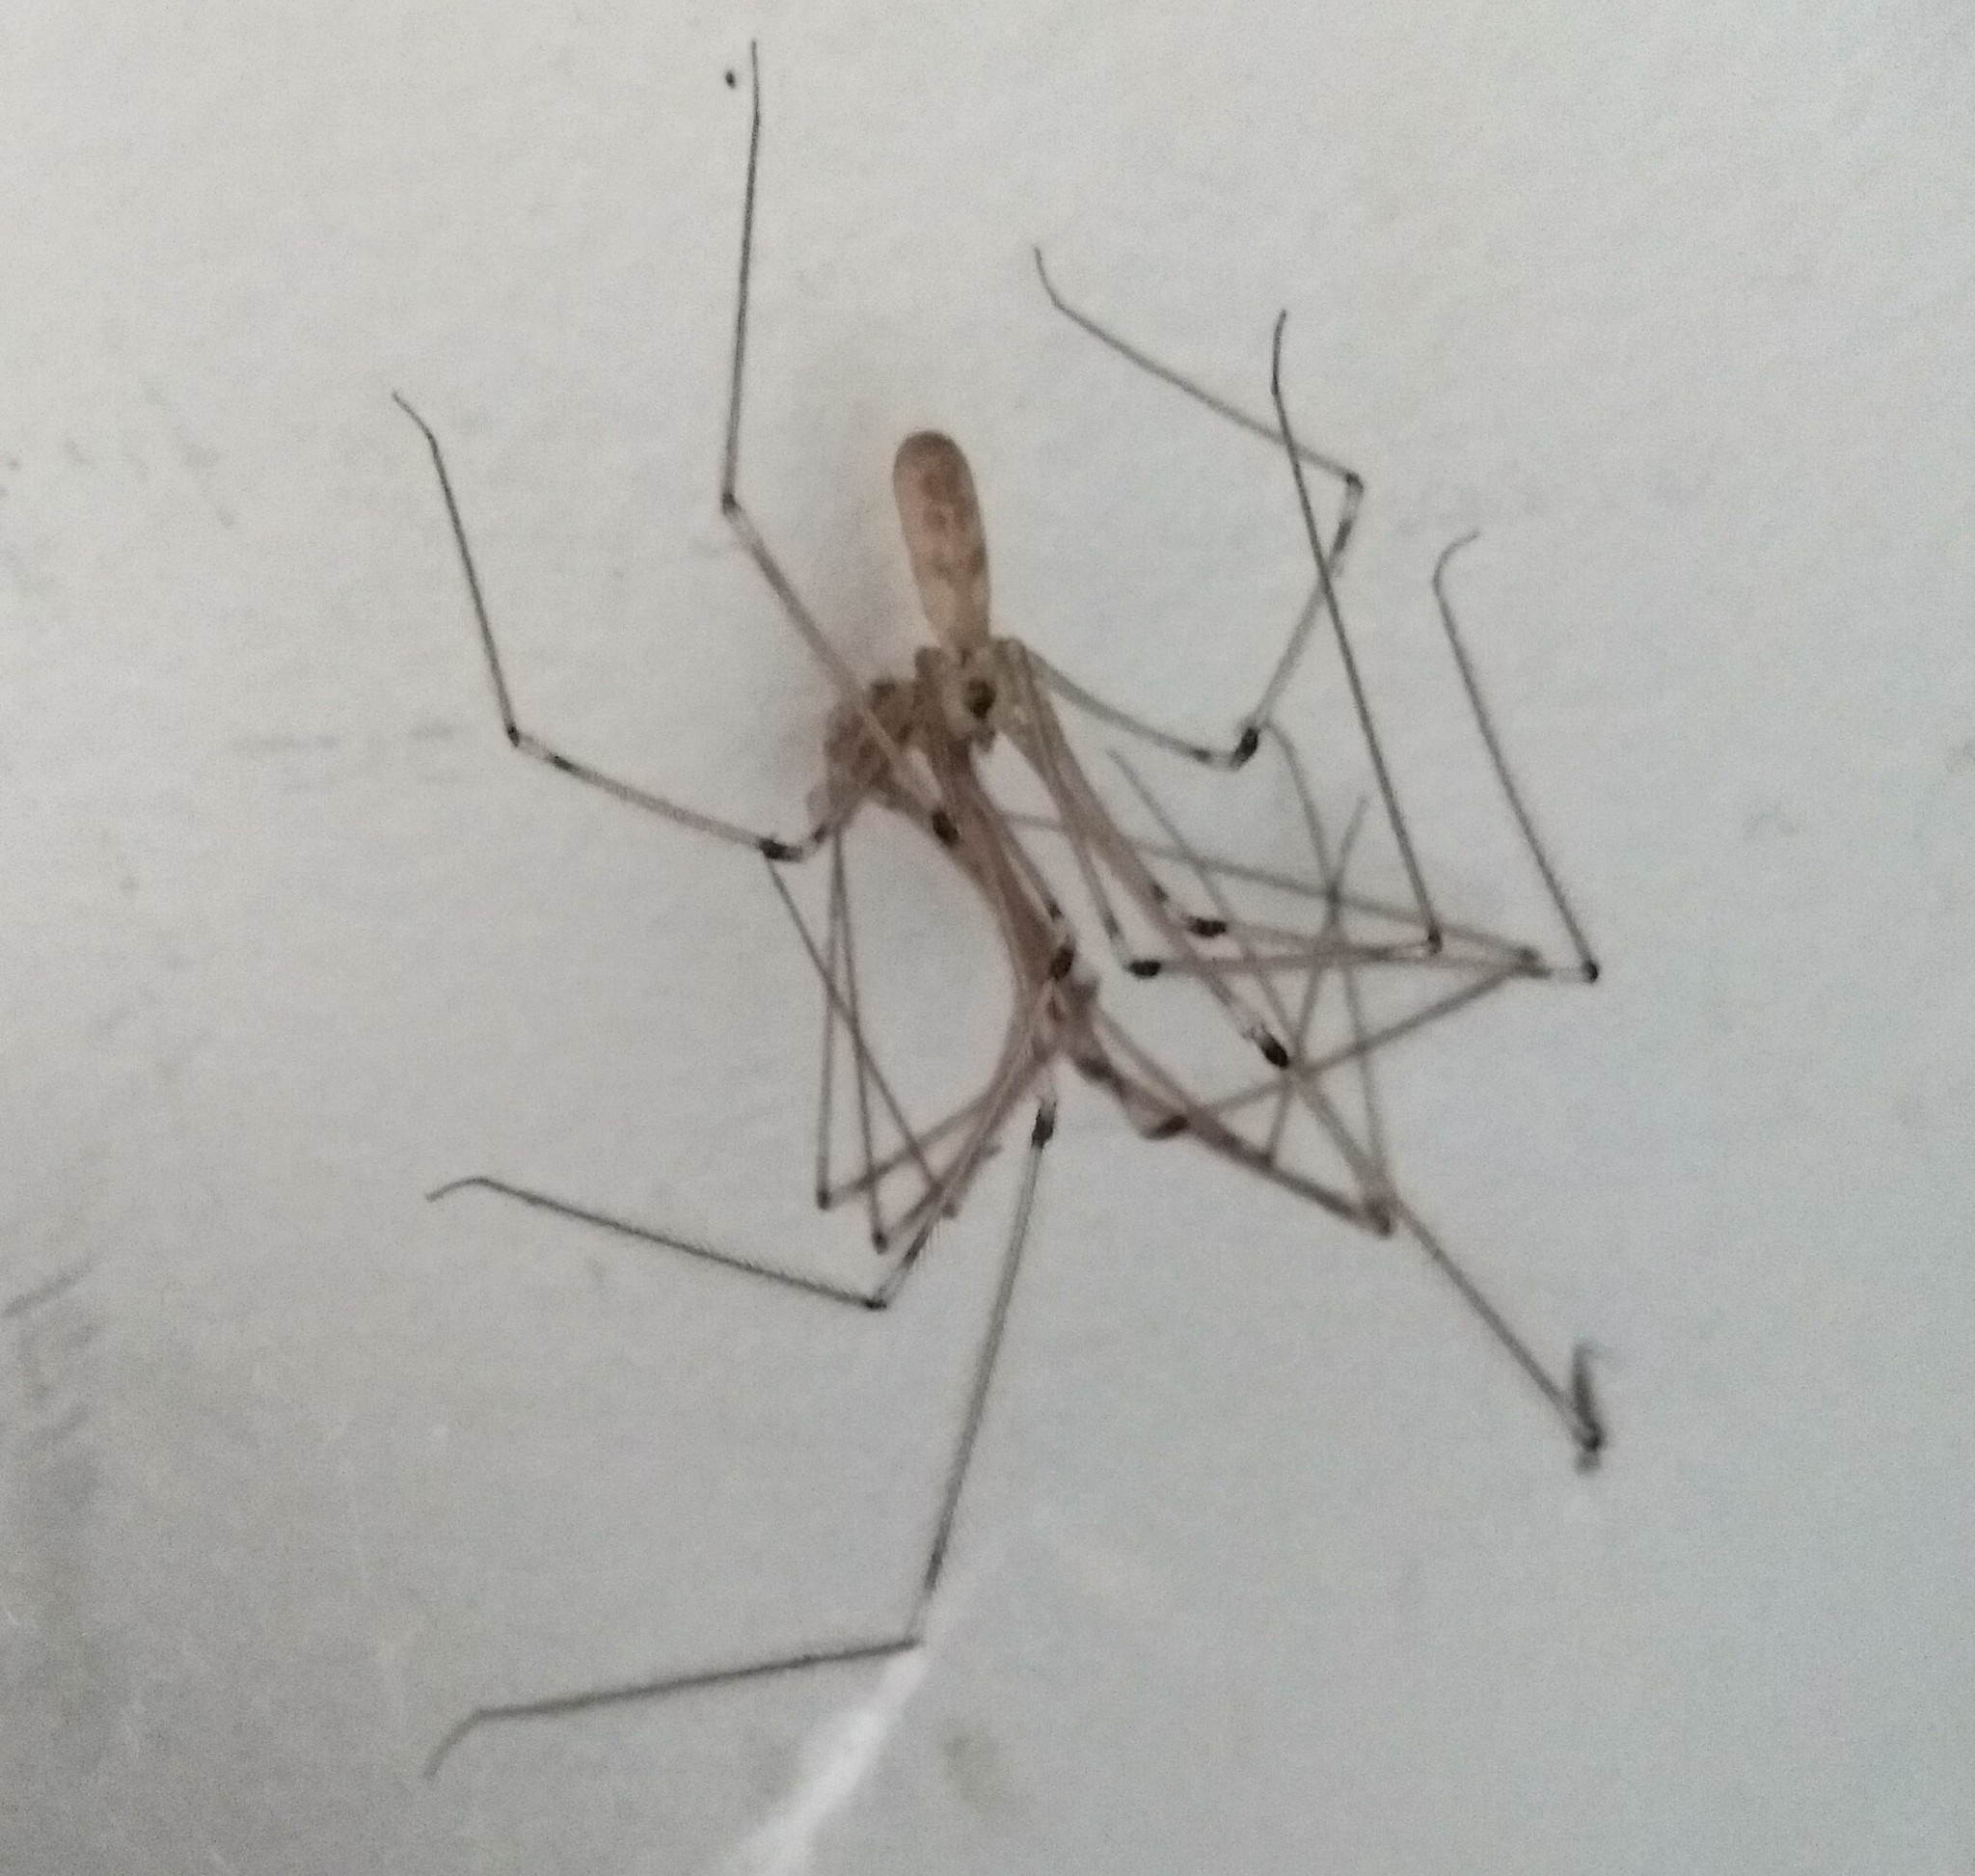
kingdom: Animalia
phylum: Arthropoda
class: Arachnida
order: Araneae
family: Pholcidae
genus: Pholcus
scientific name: Pholcus phalangioides
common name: Longbodied cellar spider
